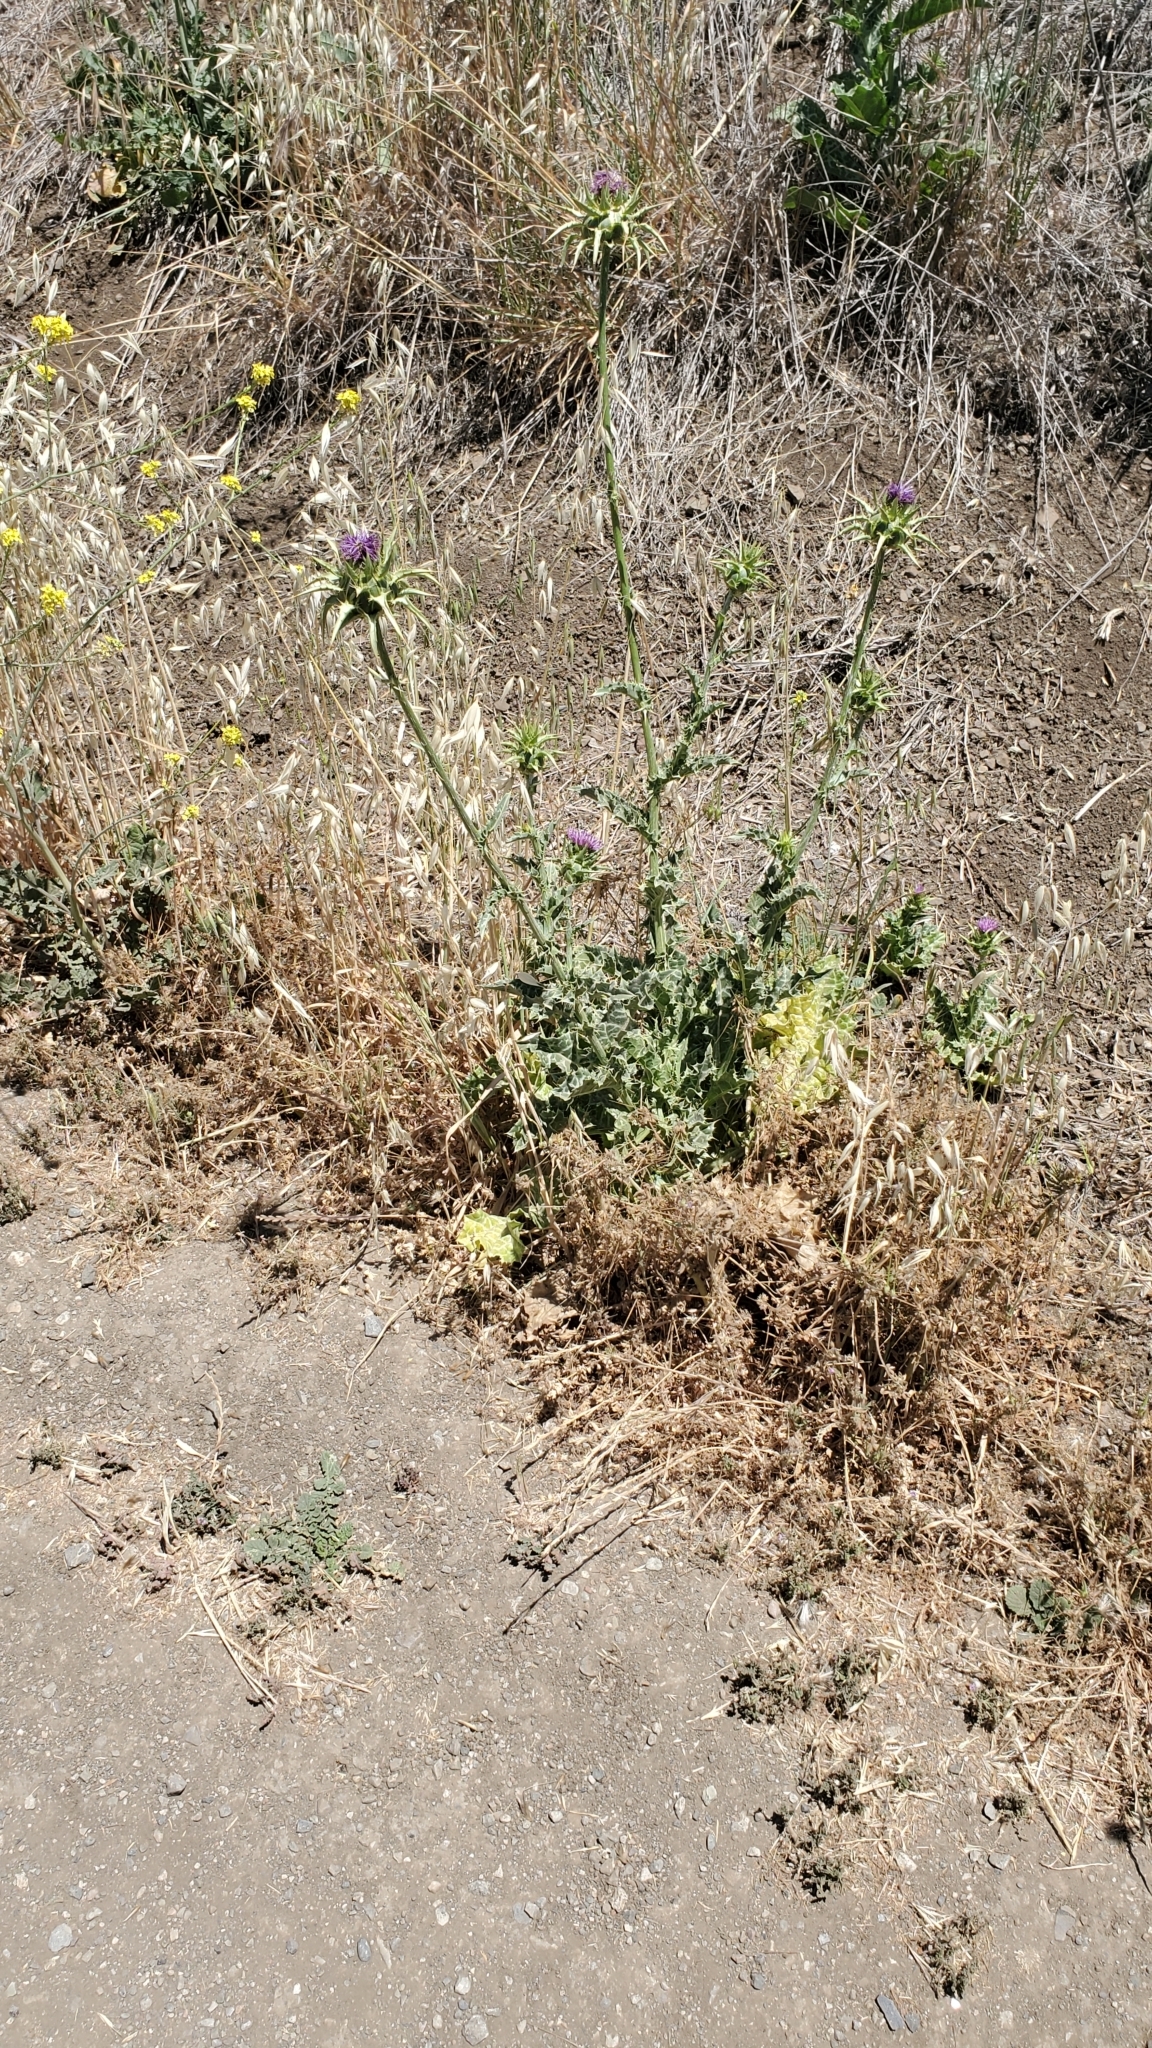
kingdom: Plantae
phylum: Tracheophyta
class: Magnoliopsida
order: Asterales
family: Asteraceae
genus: Silybum
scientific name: Silybum marianum
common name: Milk thistle
